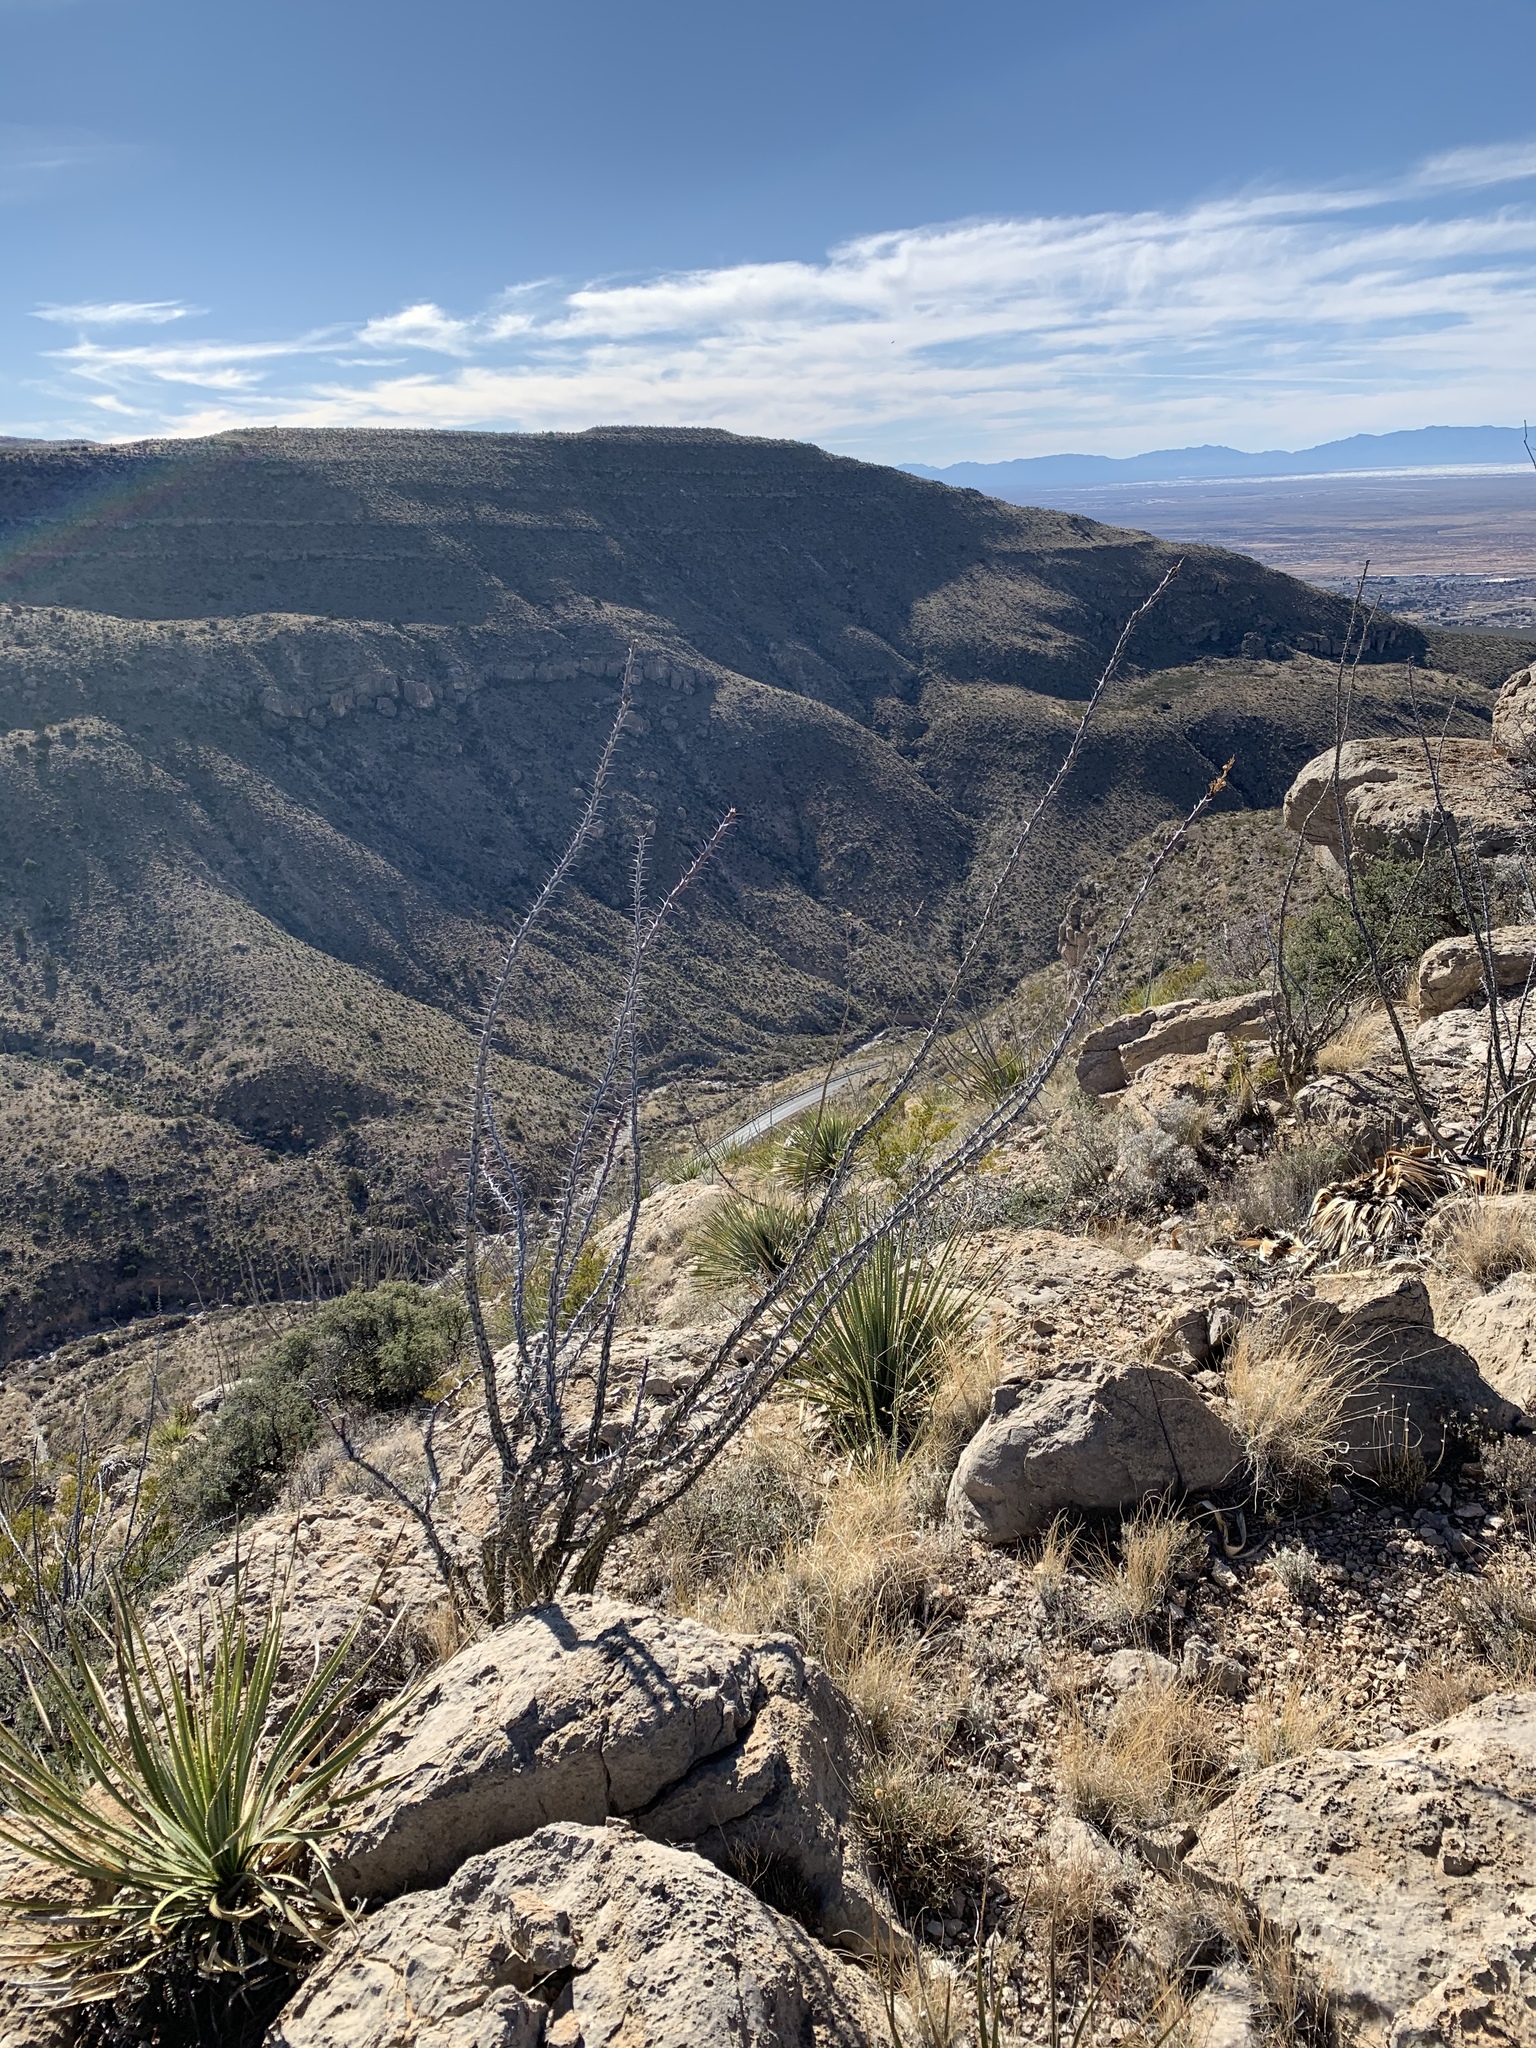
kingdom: Plantae
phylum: Tracheophyta
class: Magnoliopsida
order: Ericales
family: Fouquieriaceae
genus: Fouquieria
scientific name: Fouquieria splendens
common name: Vine-cactus
